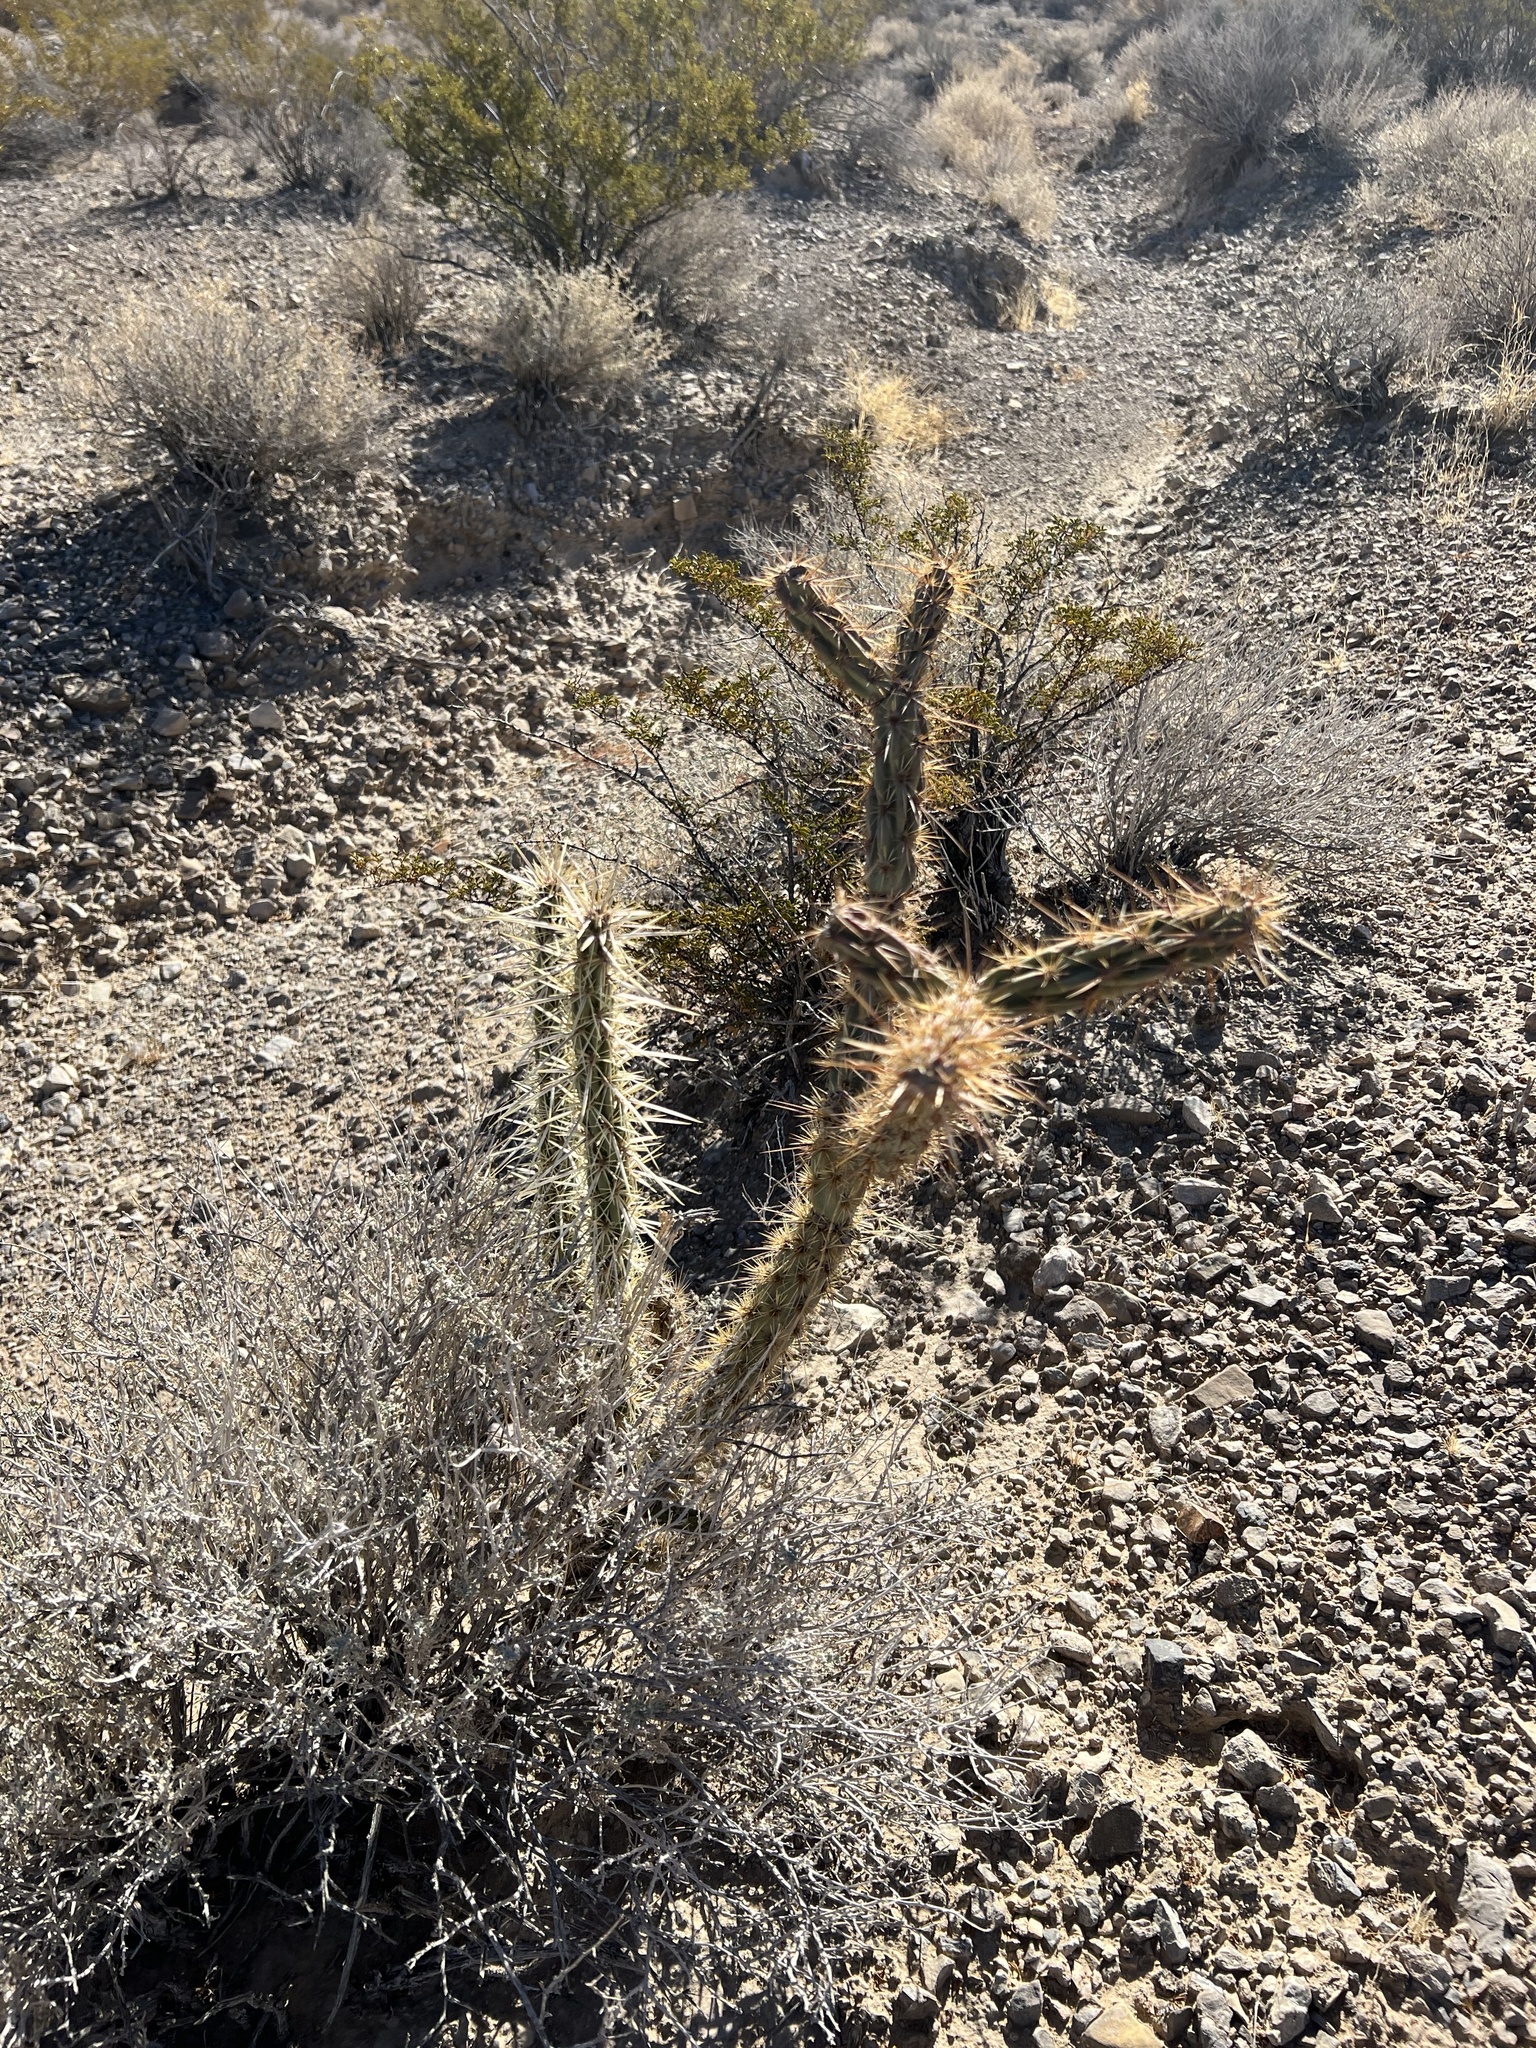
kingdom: Plantae
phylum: Tracheophyta
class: Magnoliopsida
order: Caryophyllales
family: Cactaceae
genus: Cylindropuntia
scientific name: Cylindropuntia acanthocarpa
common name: Buckhorn cholla
